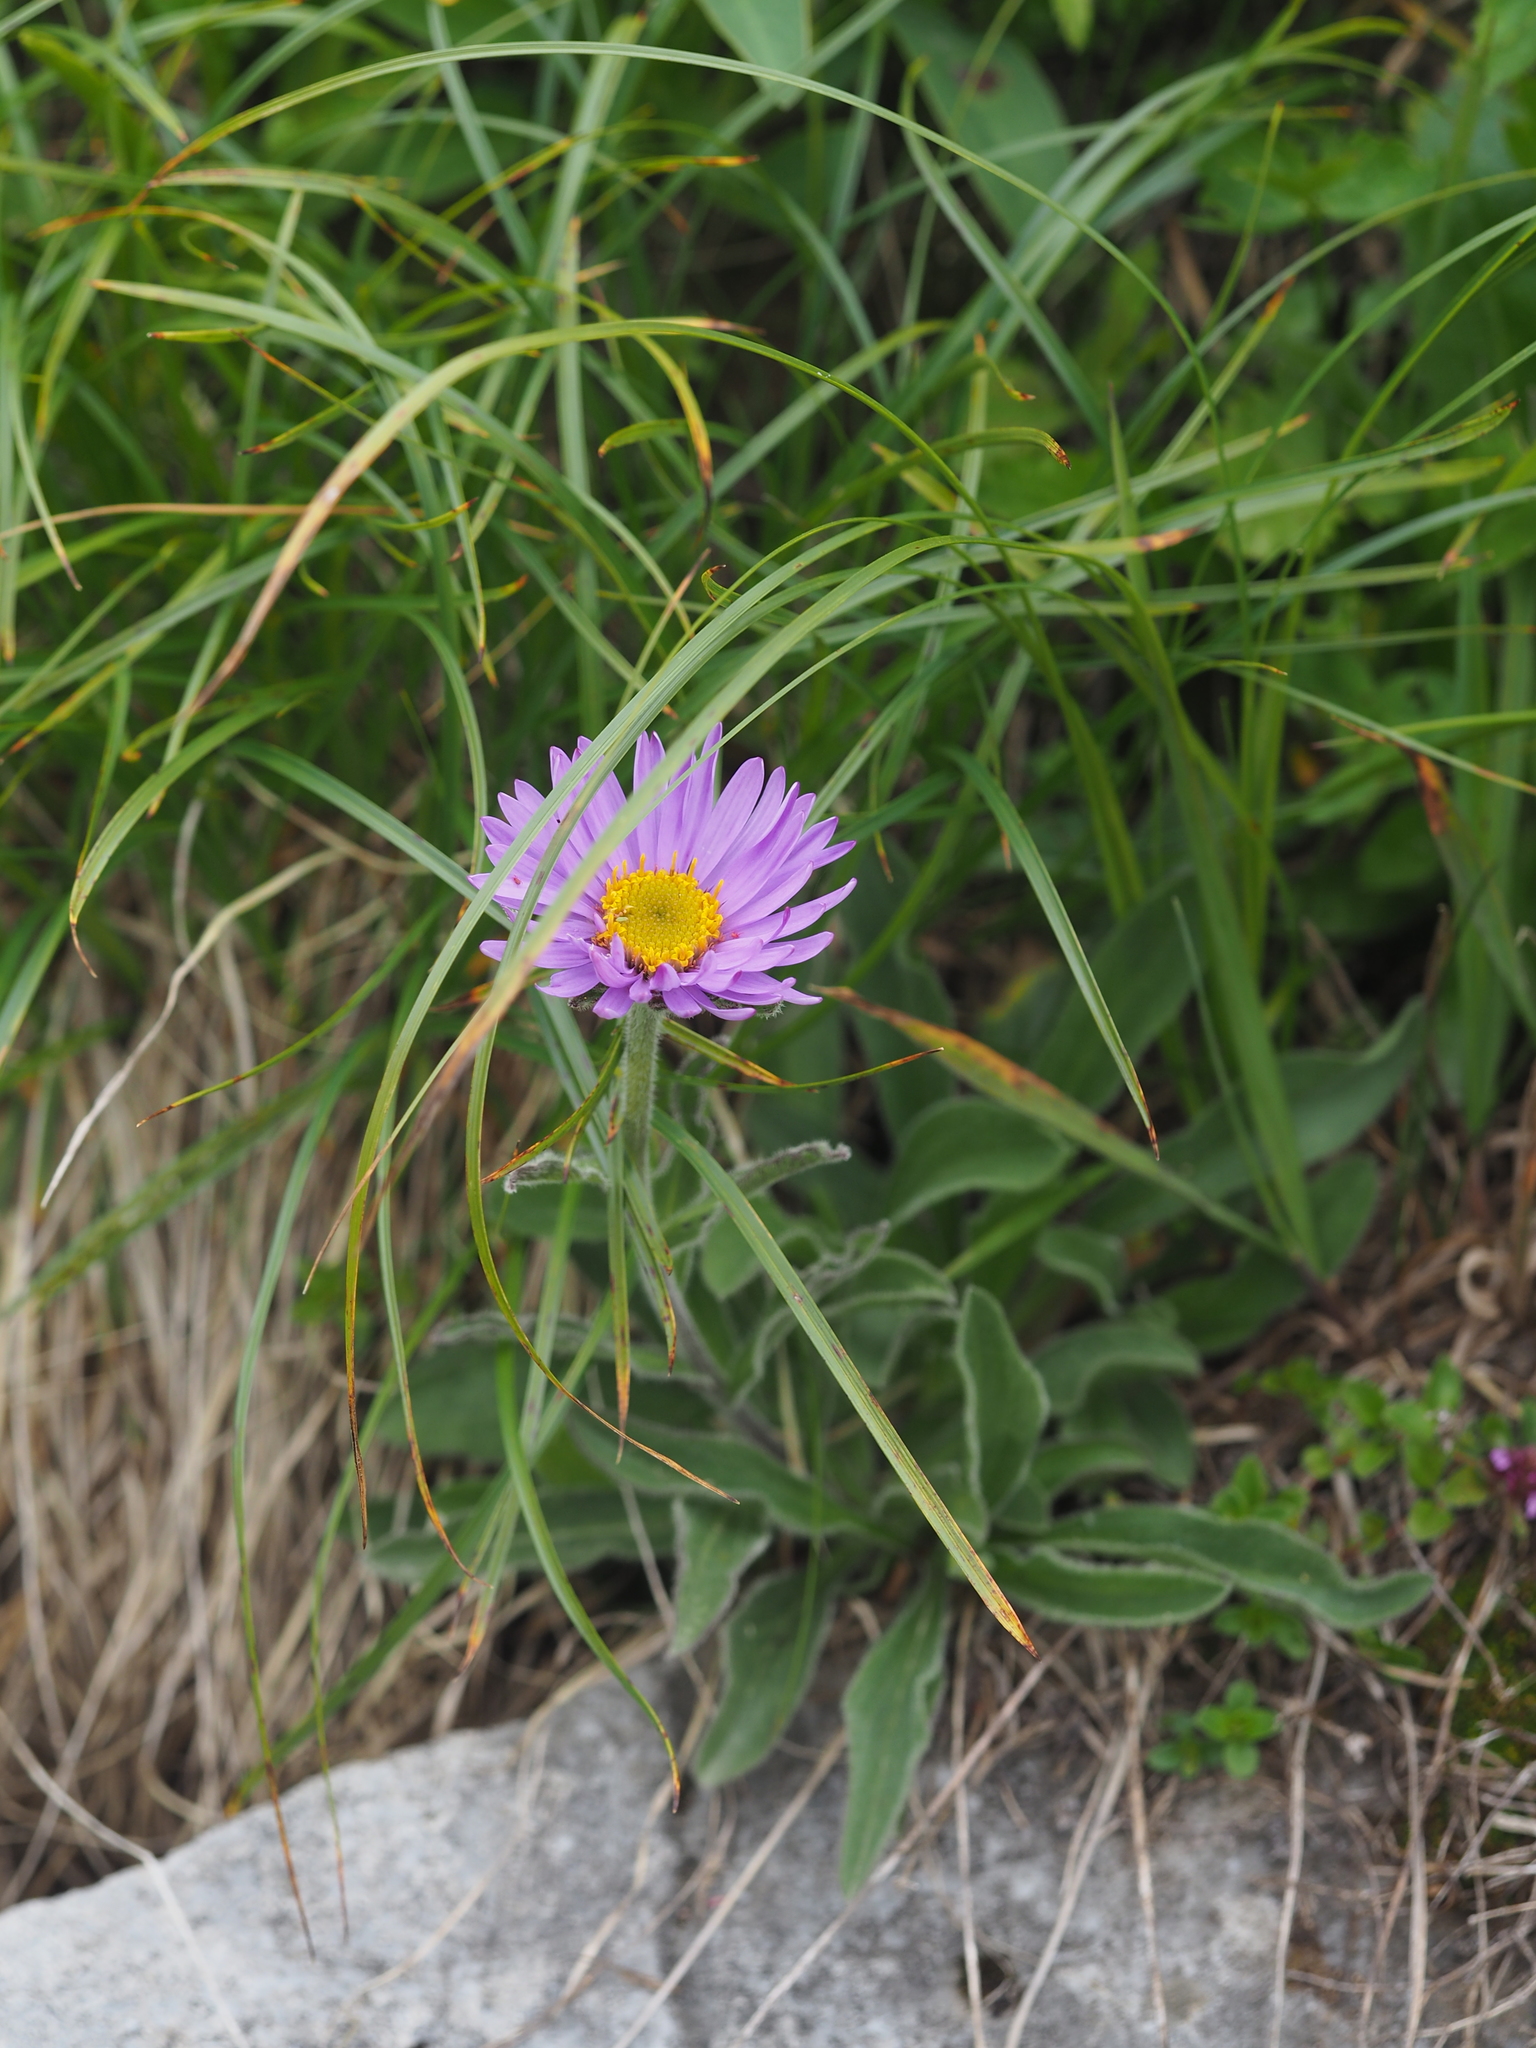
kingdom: Plantae
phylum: Tracheophyta
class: Magnoliopsida
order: Asterales
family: Asteraceae
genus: Aster
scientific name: Aster alpinus
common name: Alpine aster
